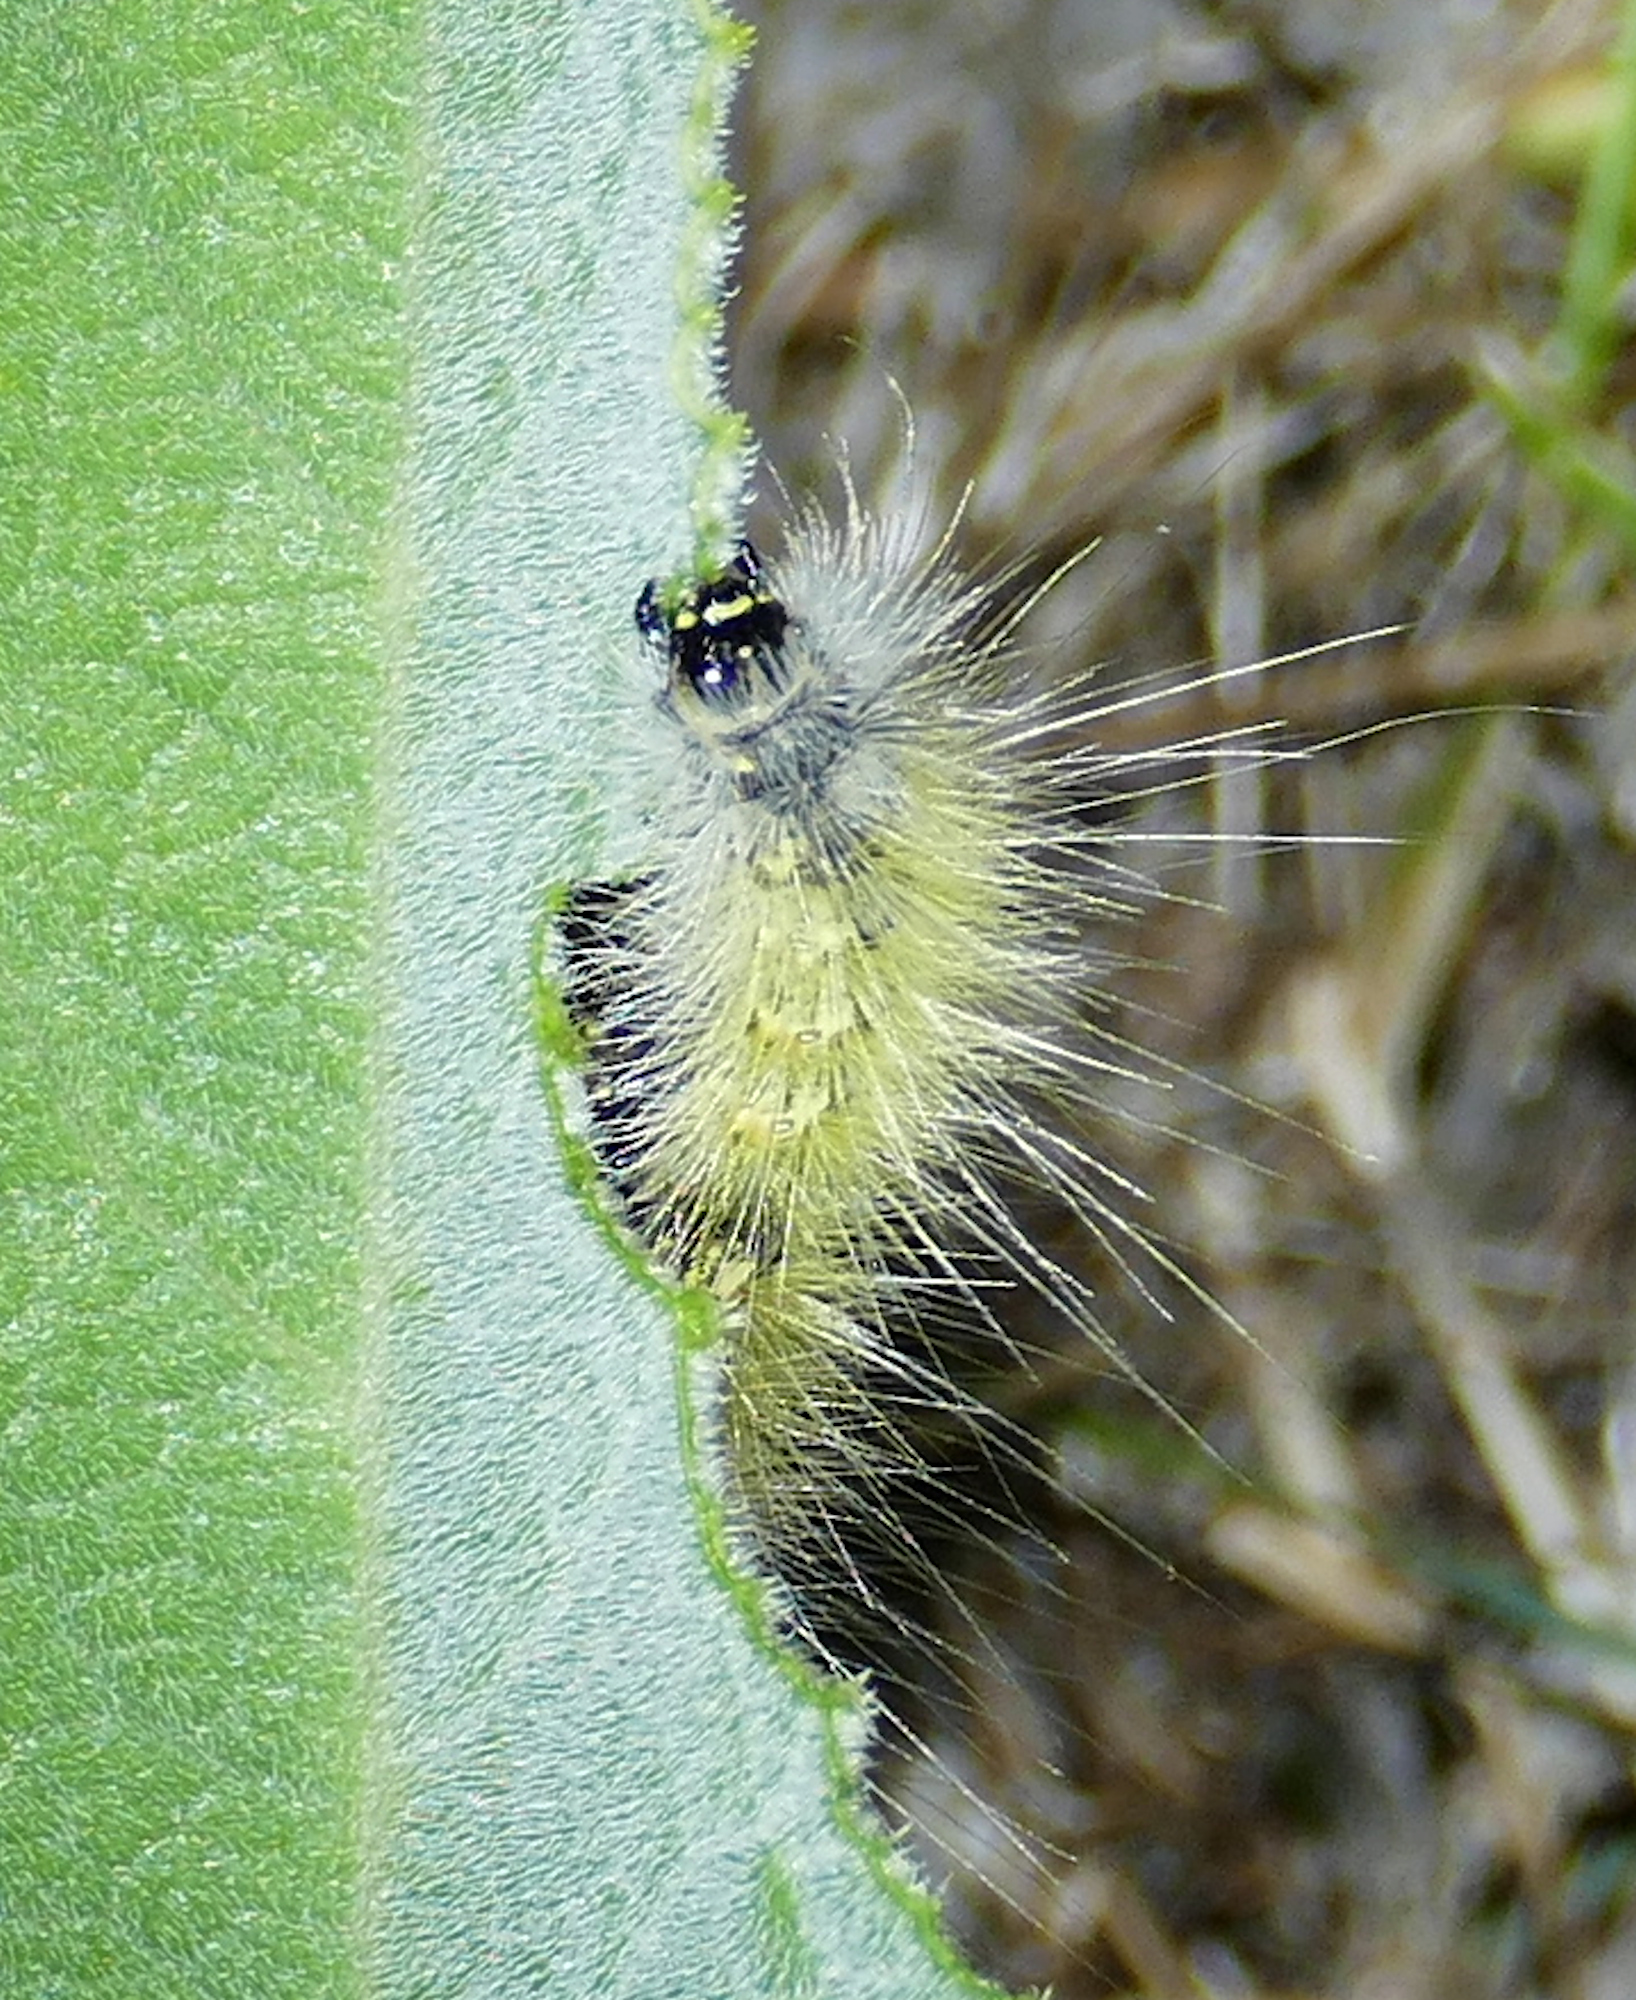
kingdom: Animalia
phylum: Arthropoda
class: Insecta
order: Lepidoptera
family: Erebidae
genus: Estigmene
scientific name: Estigmene
